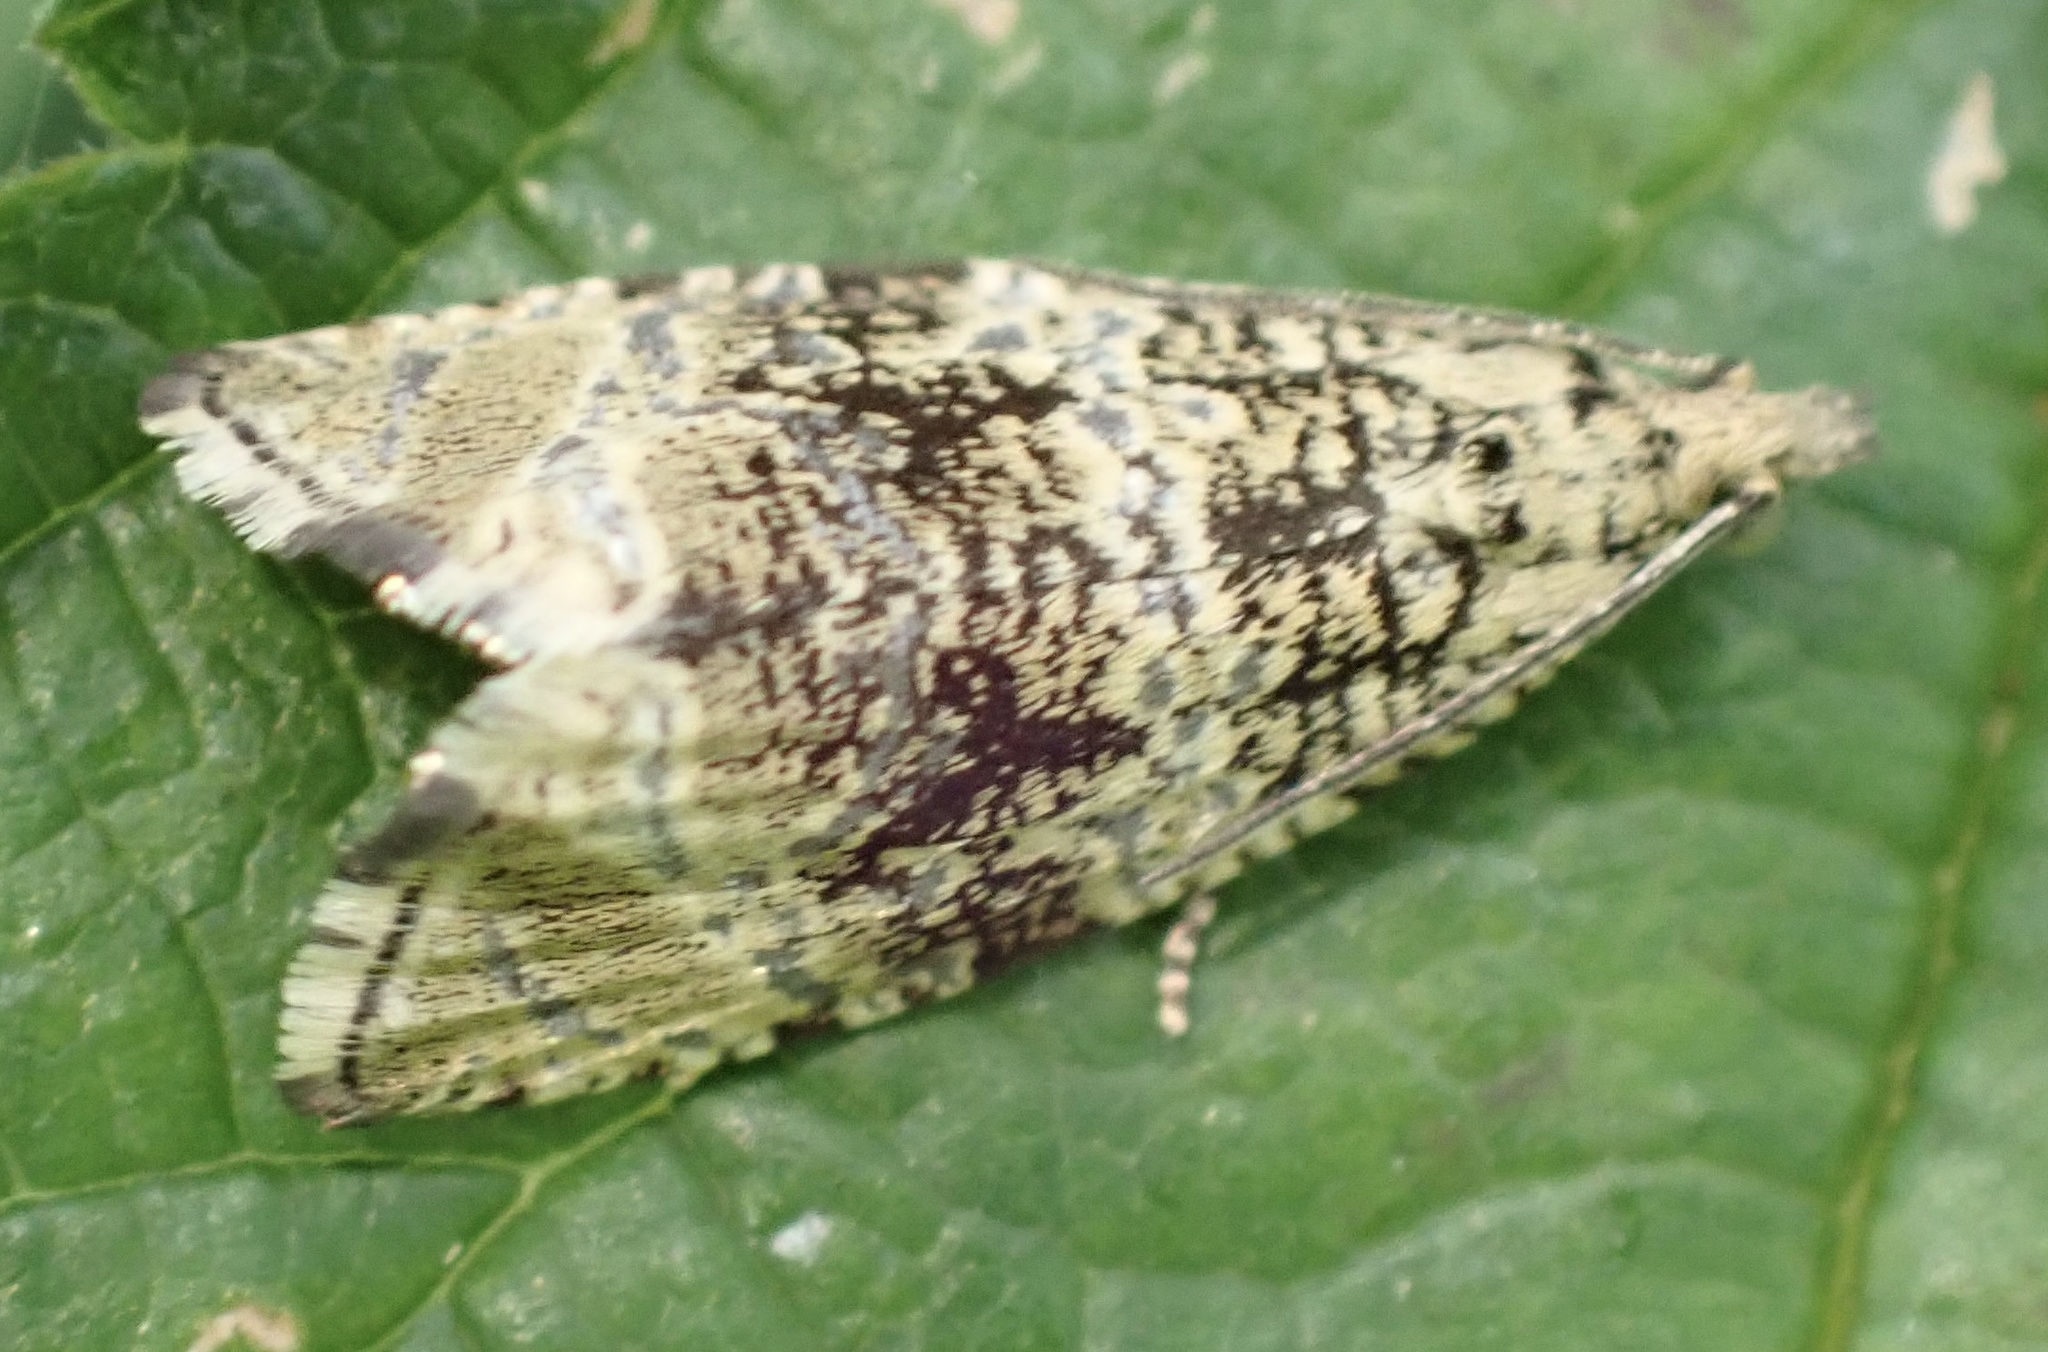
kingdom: Animalia
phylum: Arthropoda
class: Insecta
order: Lepidoptera
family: Tortricidae
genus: Syricoris
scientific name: Syricoris lacunana
